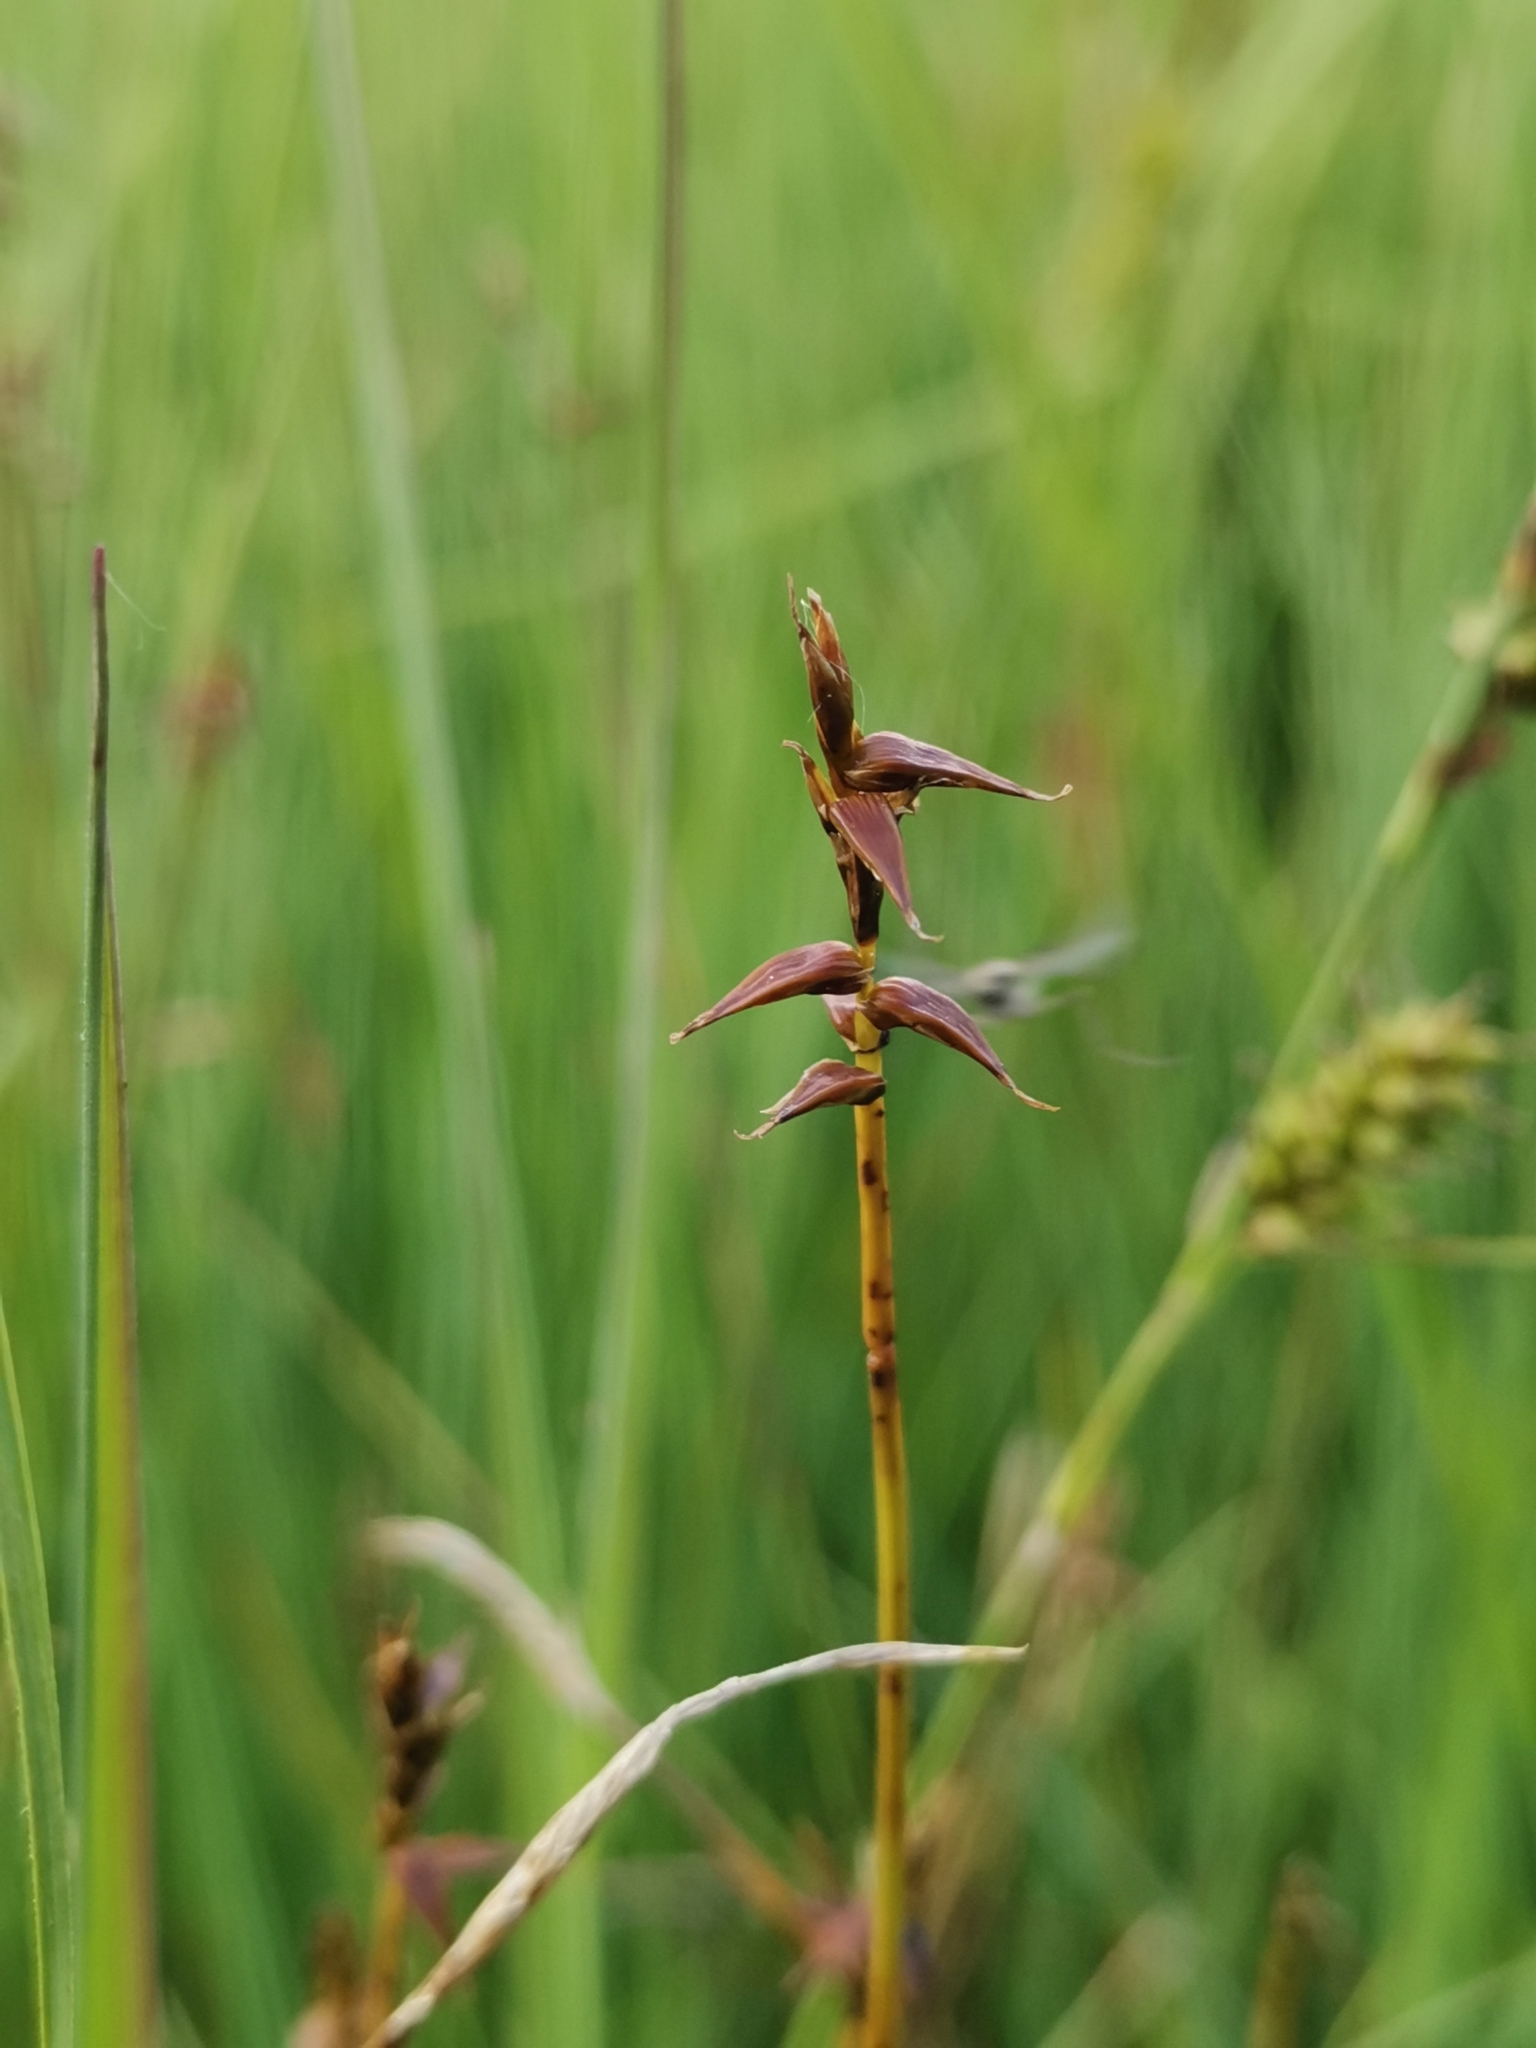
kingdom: Plantae
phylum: Tracheophyta
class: Liliopsida
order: Poales
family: Cyperaceae
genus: Carex
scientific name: Carex davalliana
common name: Davall's sedge
